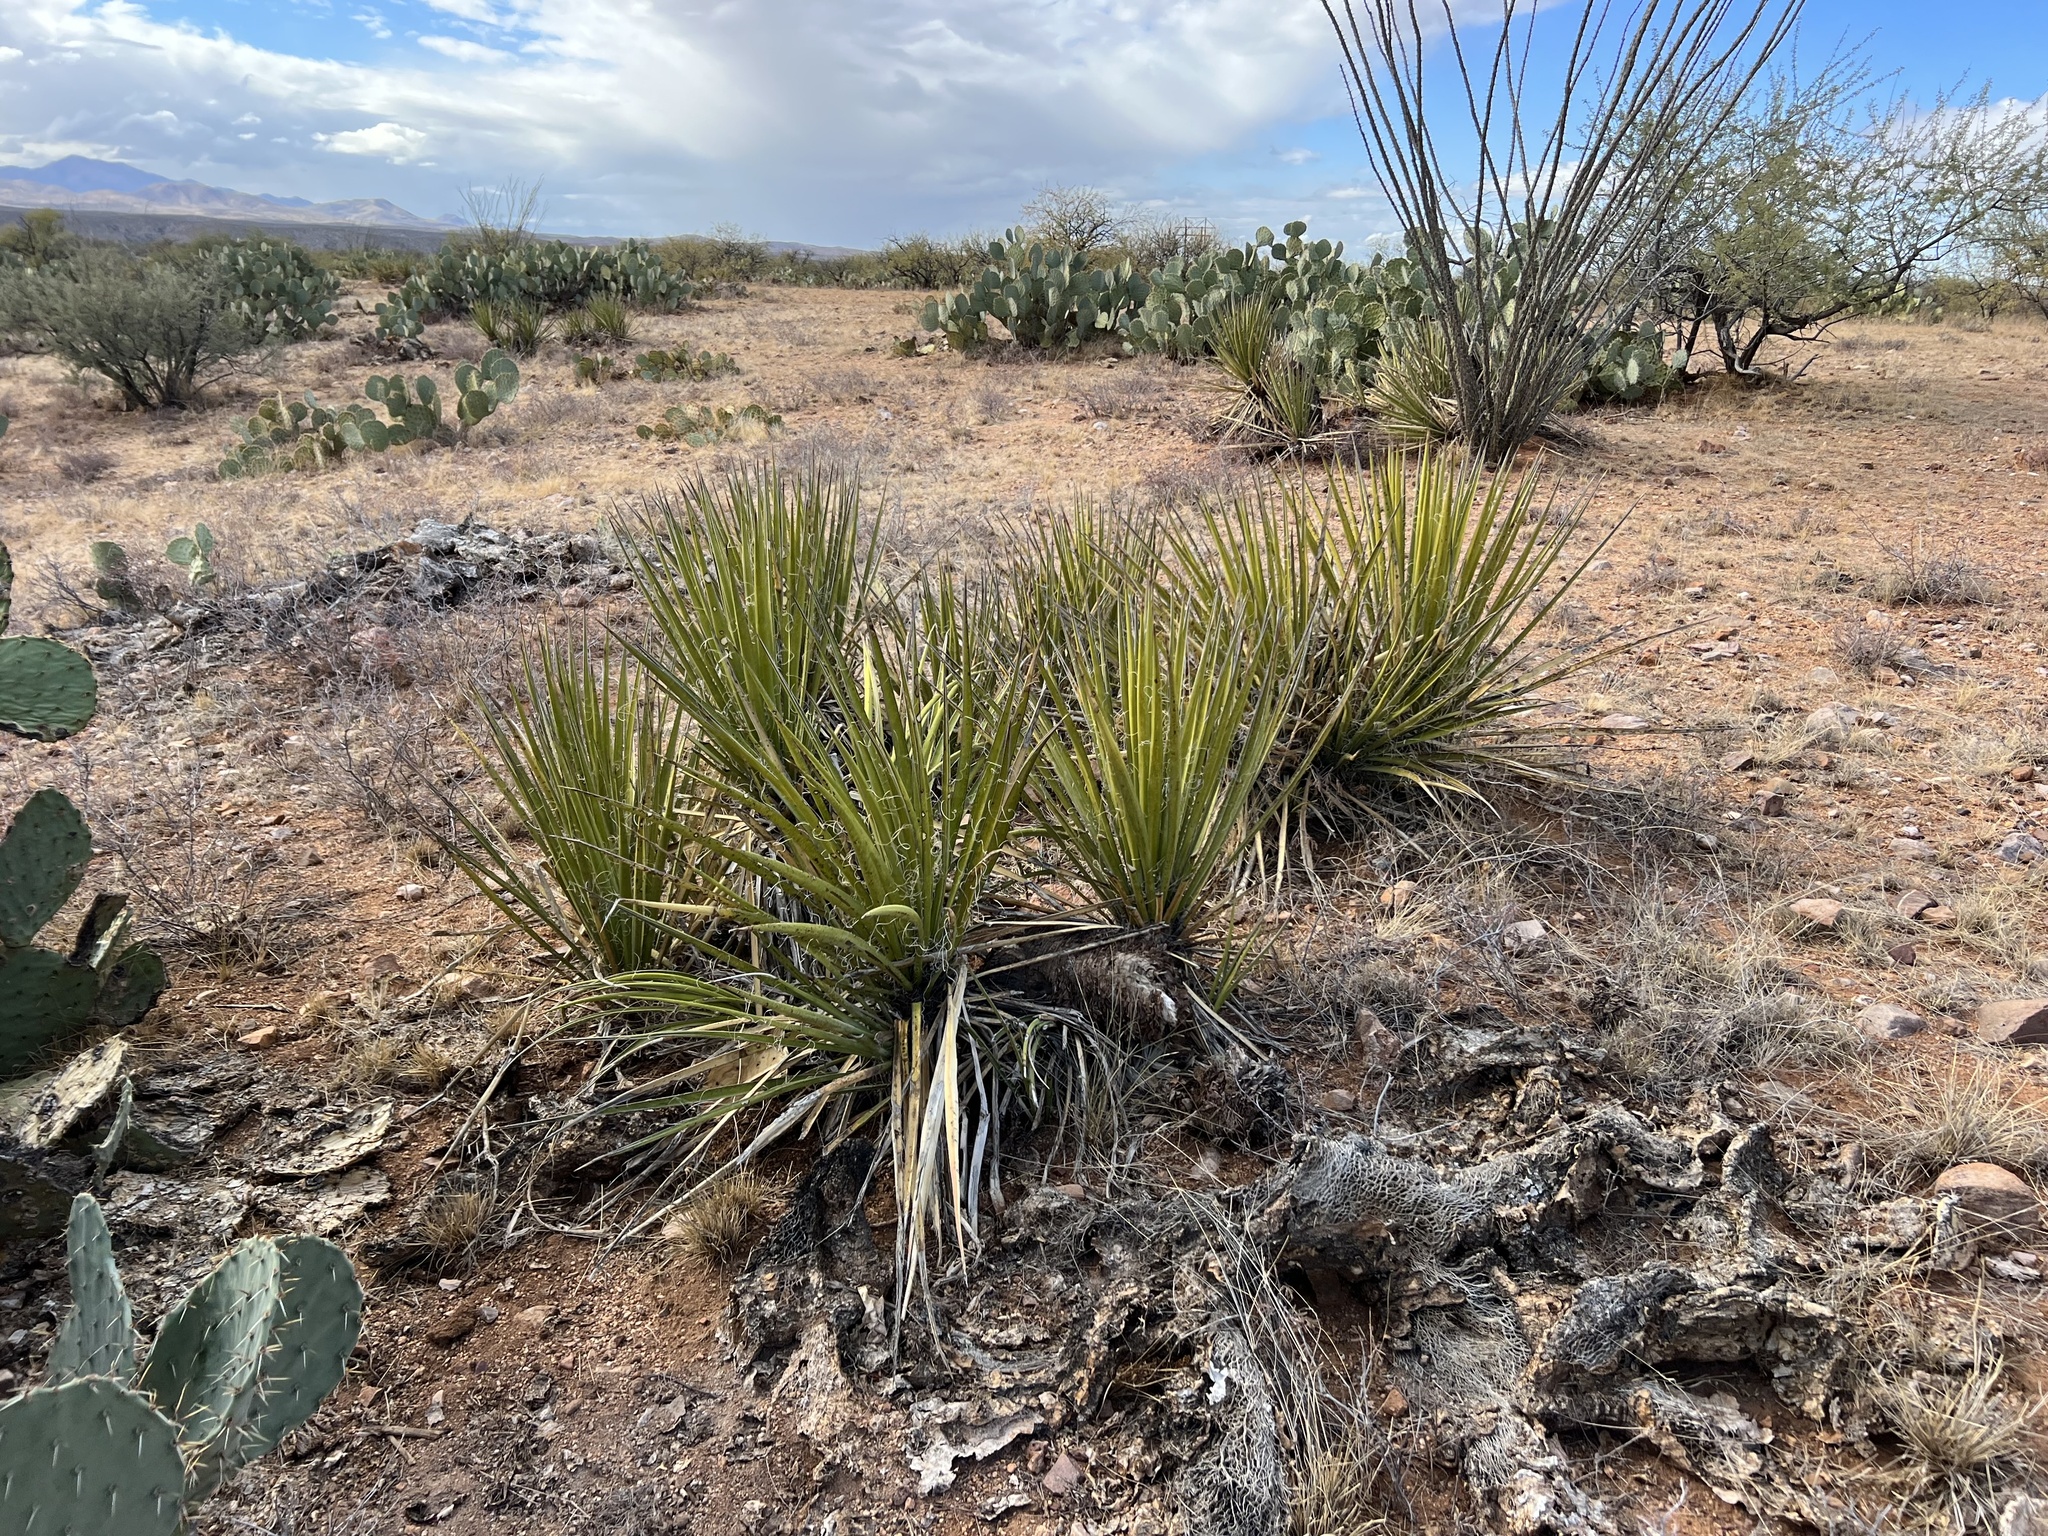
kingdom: Plantae
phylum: Tracheophyta
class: Liliopsida
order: Asparagales
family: Asparagaceae
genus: Yucca
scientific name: Yucca baccata
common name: Banana yucca
